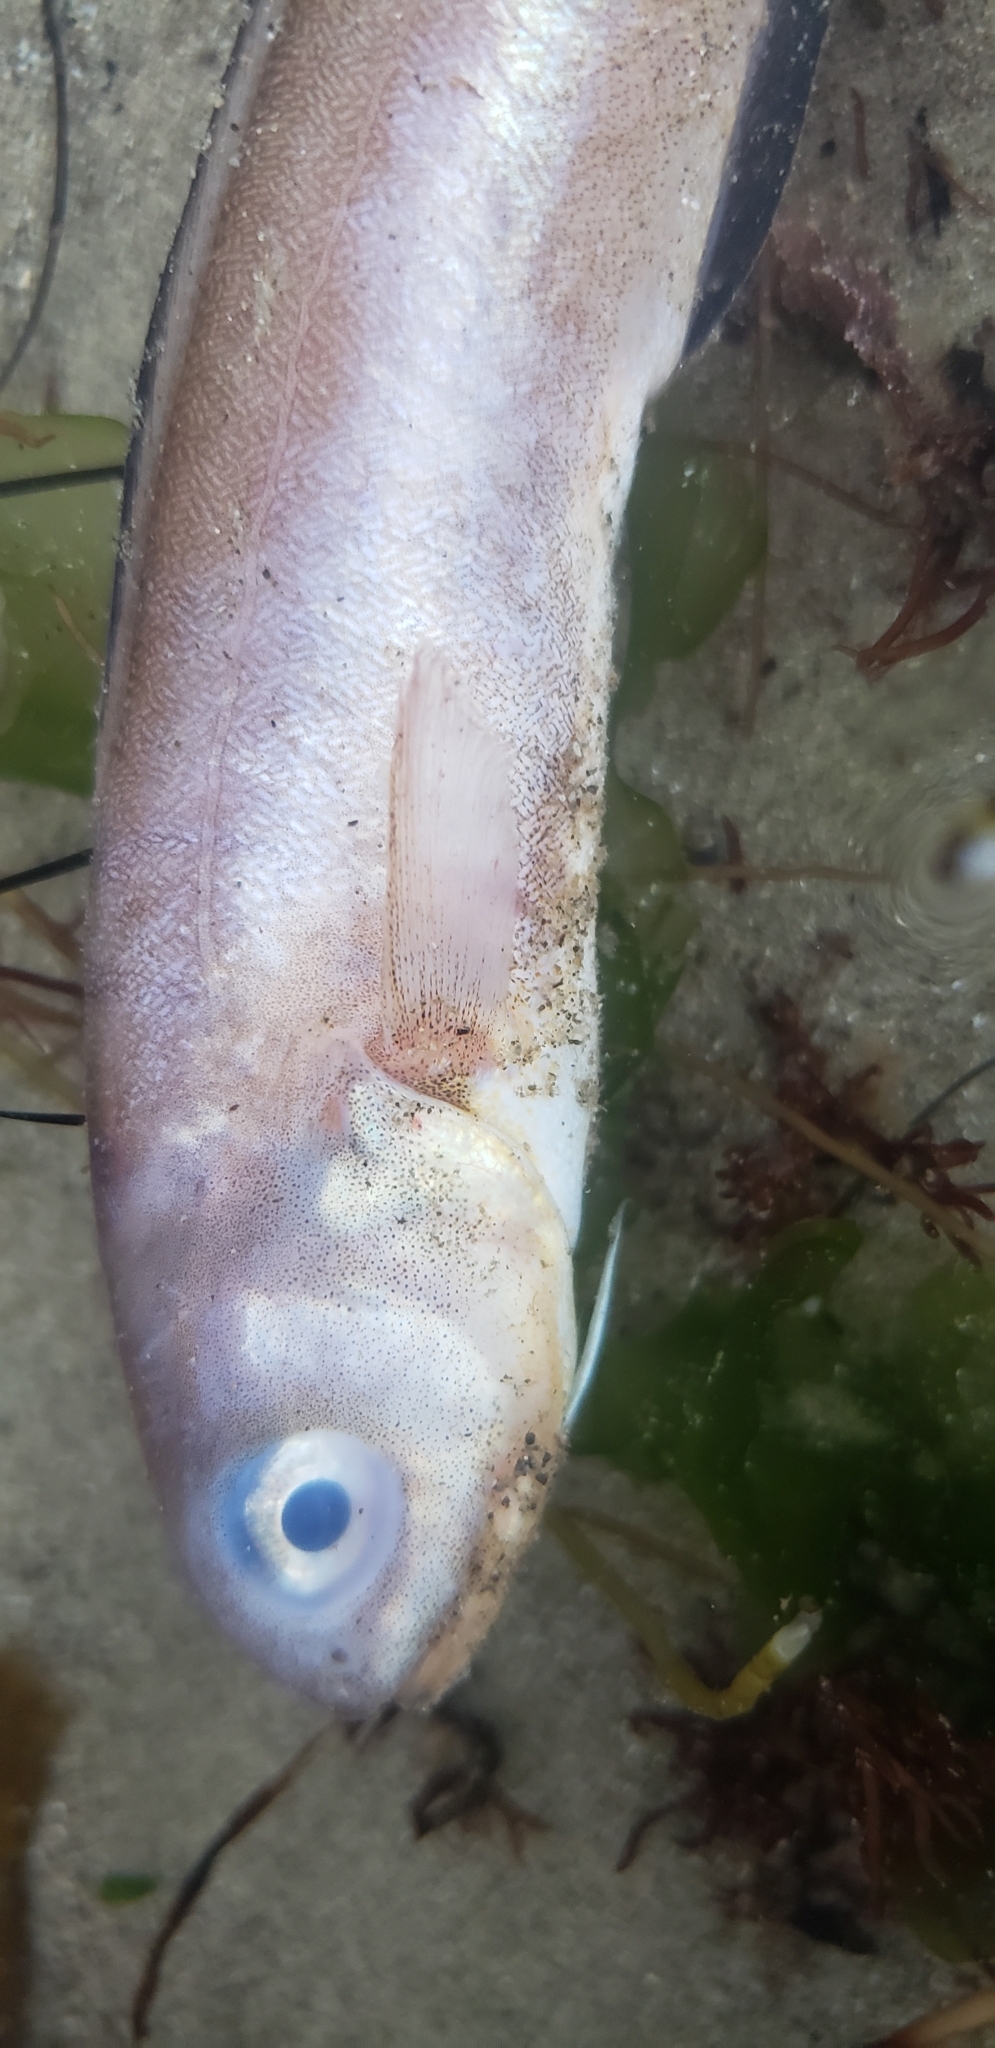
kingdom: Animalia
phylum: Chordata
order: Ophidiiformes
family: Ophidiidae
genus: Ophidion
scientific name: Ophidion scrippsae
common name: Basketweave cusk-eel
